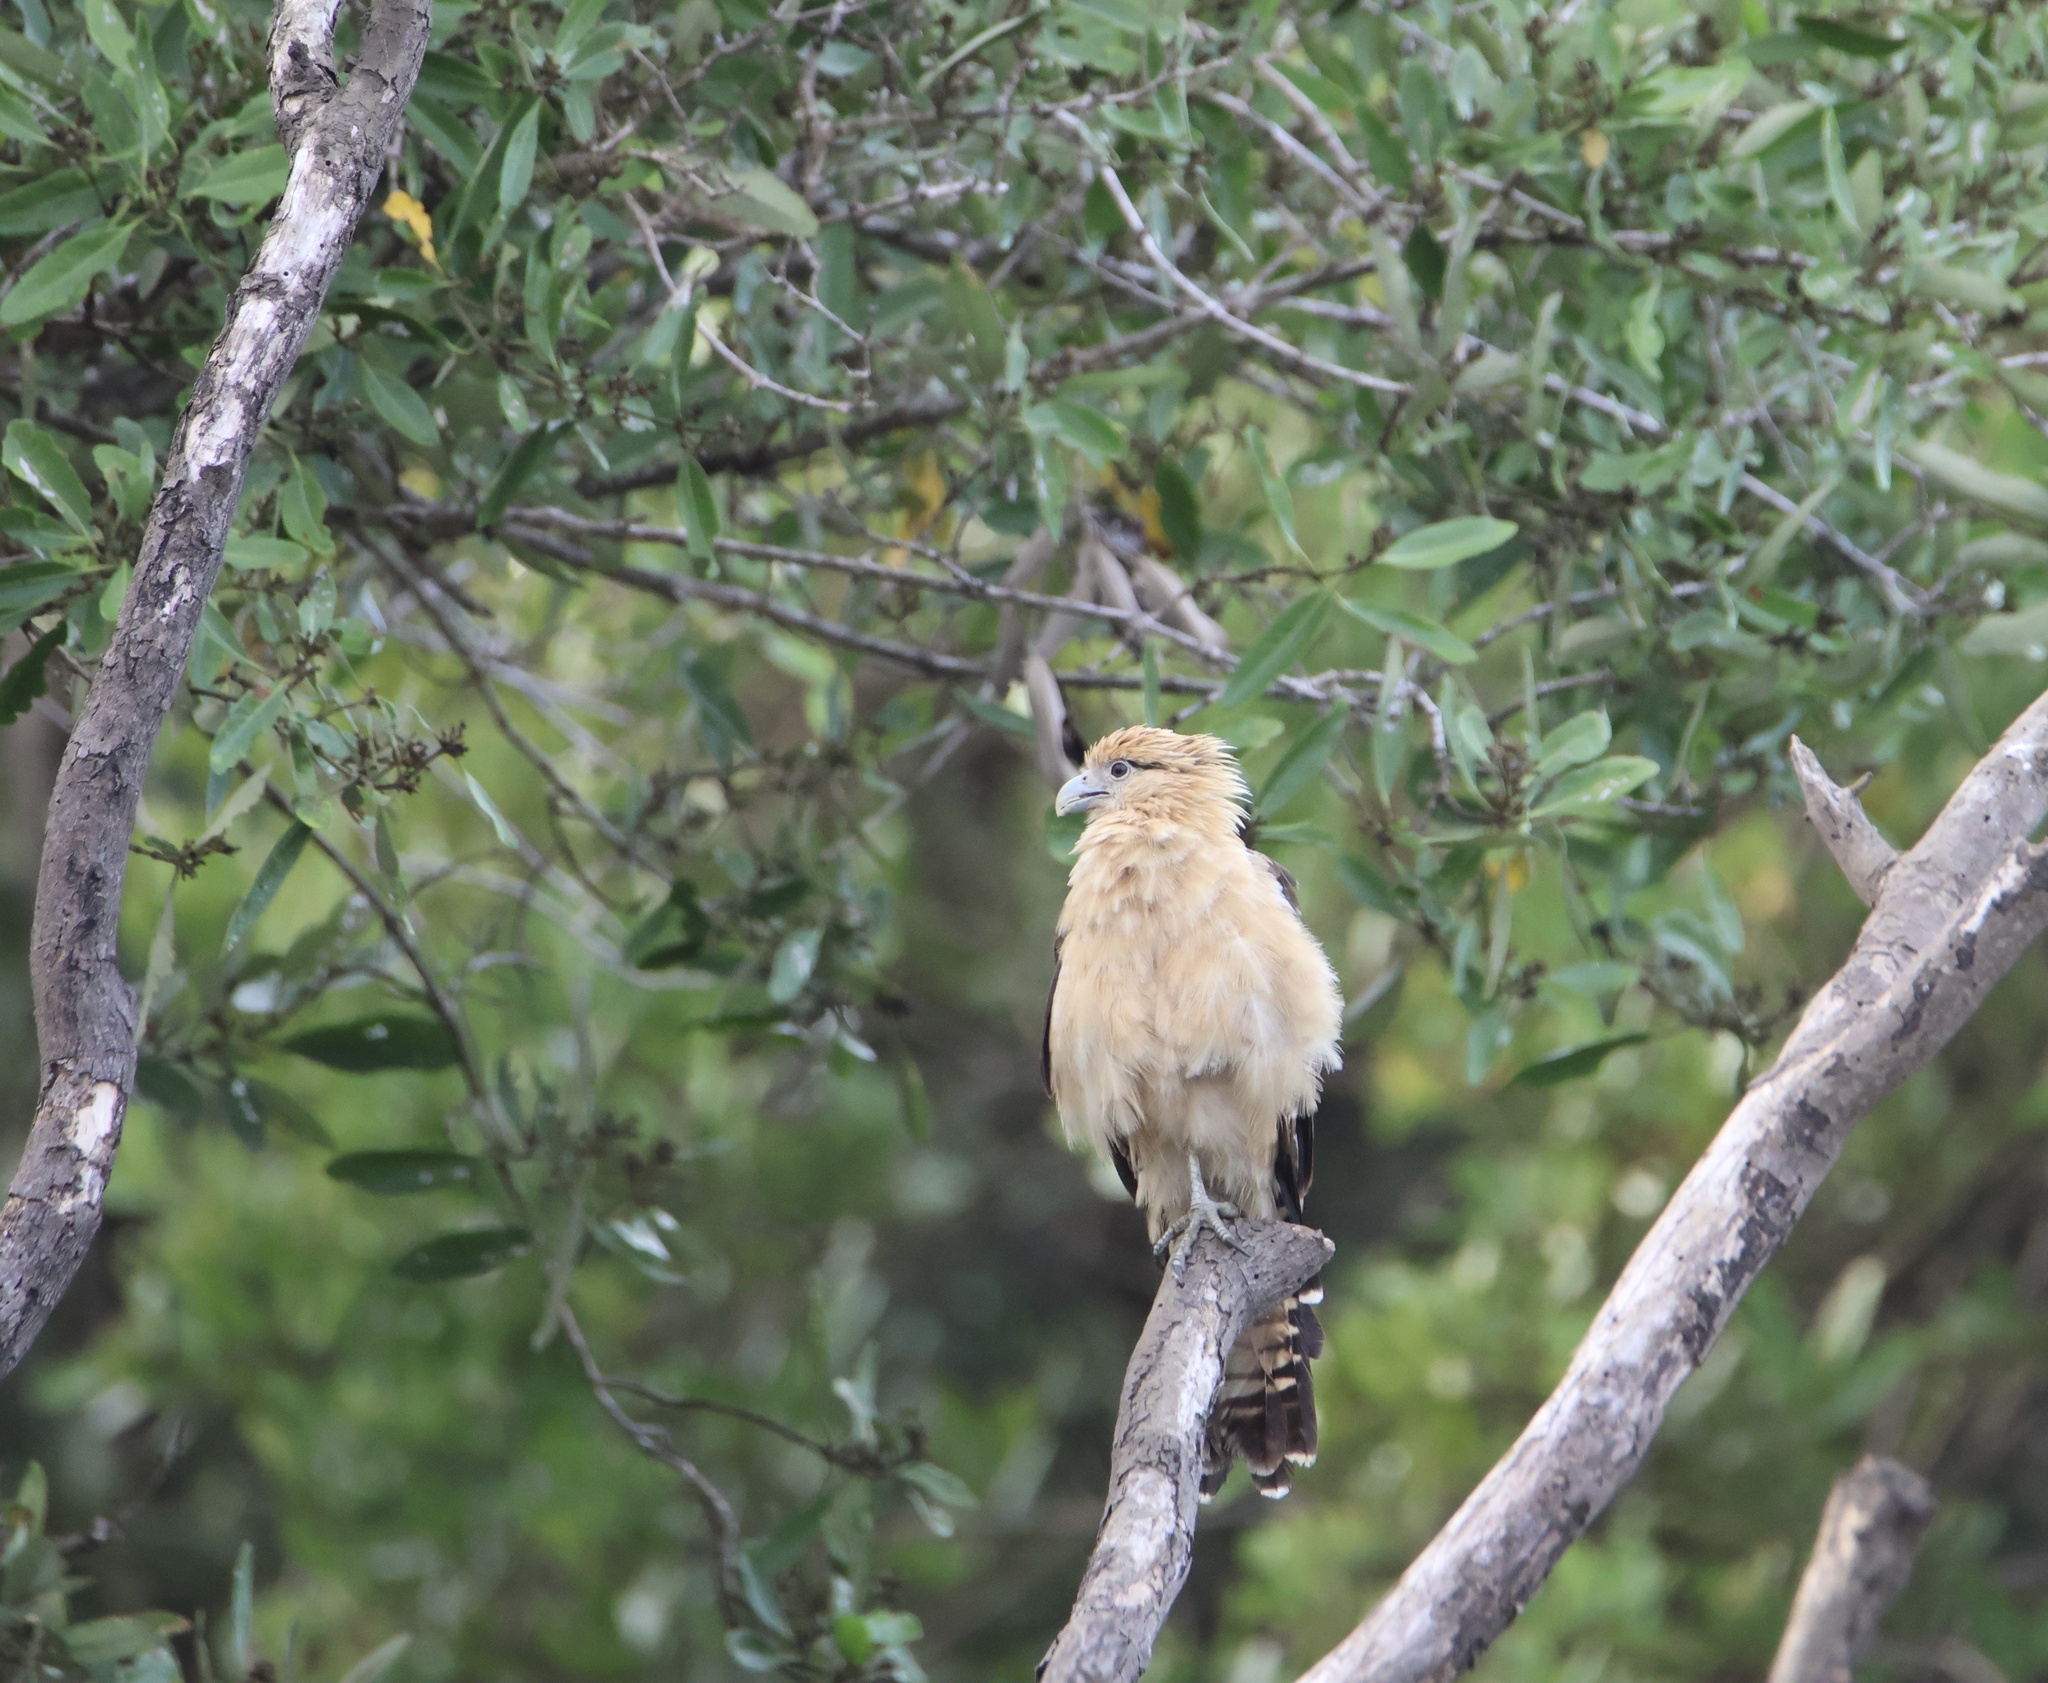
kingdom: Animalia
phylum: Chordata
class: Aves
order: Falconiformes
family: Falconidae
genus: Daptrius
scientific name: Daptrius
